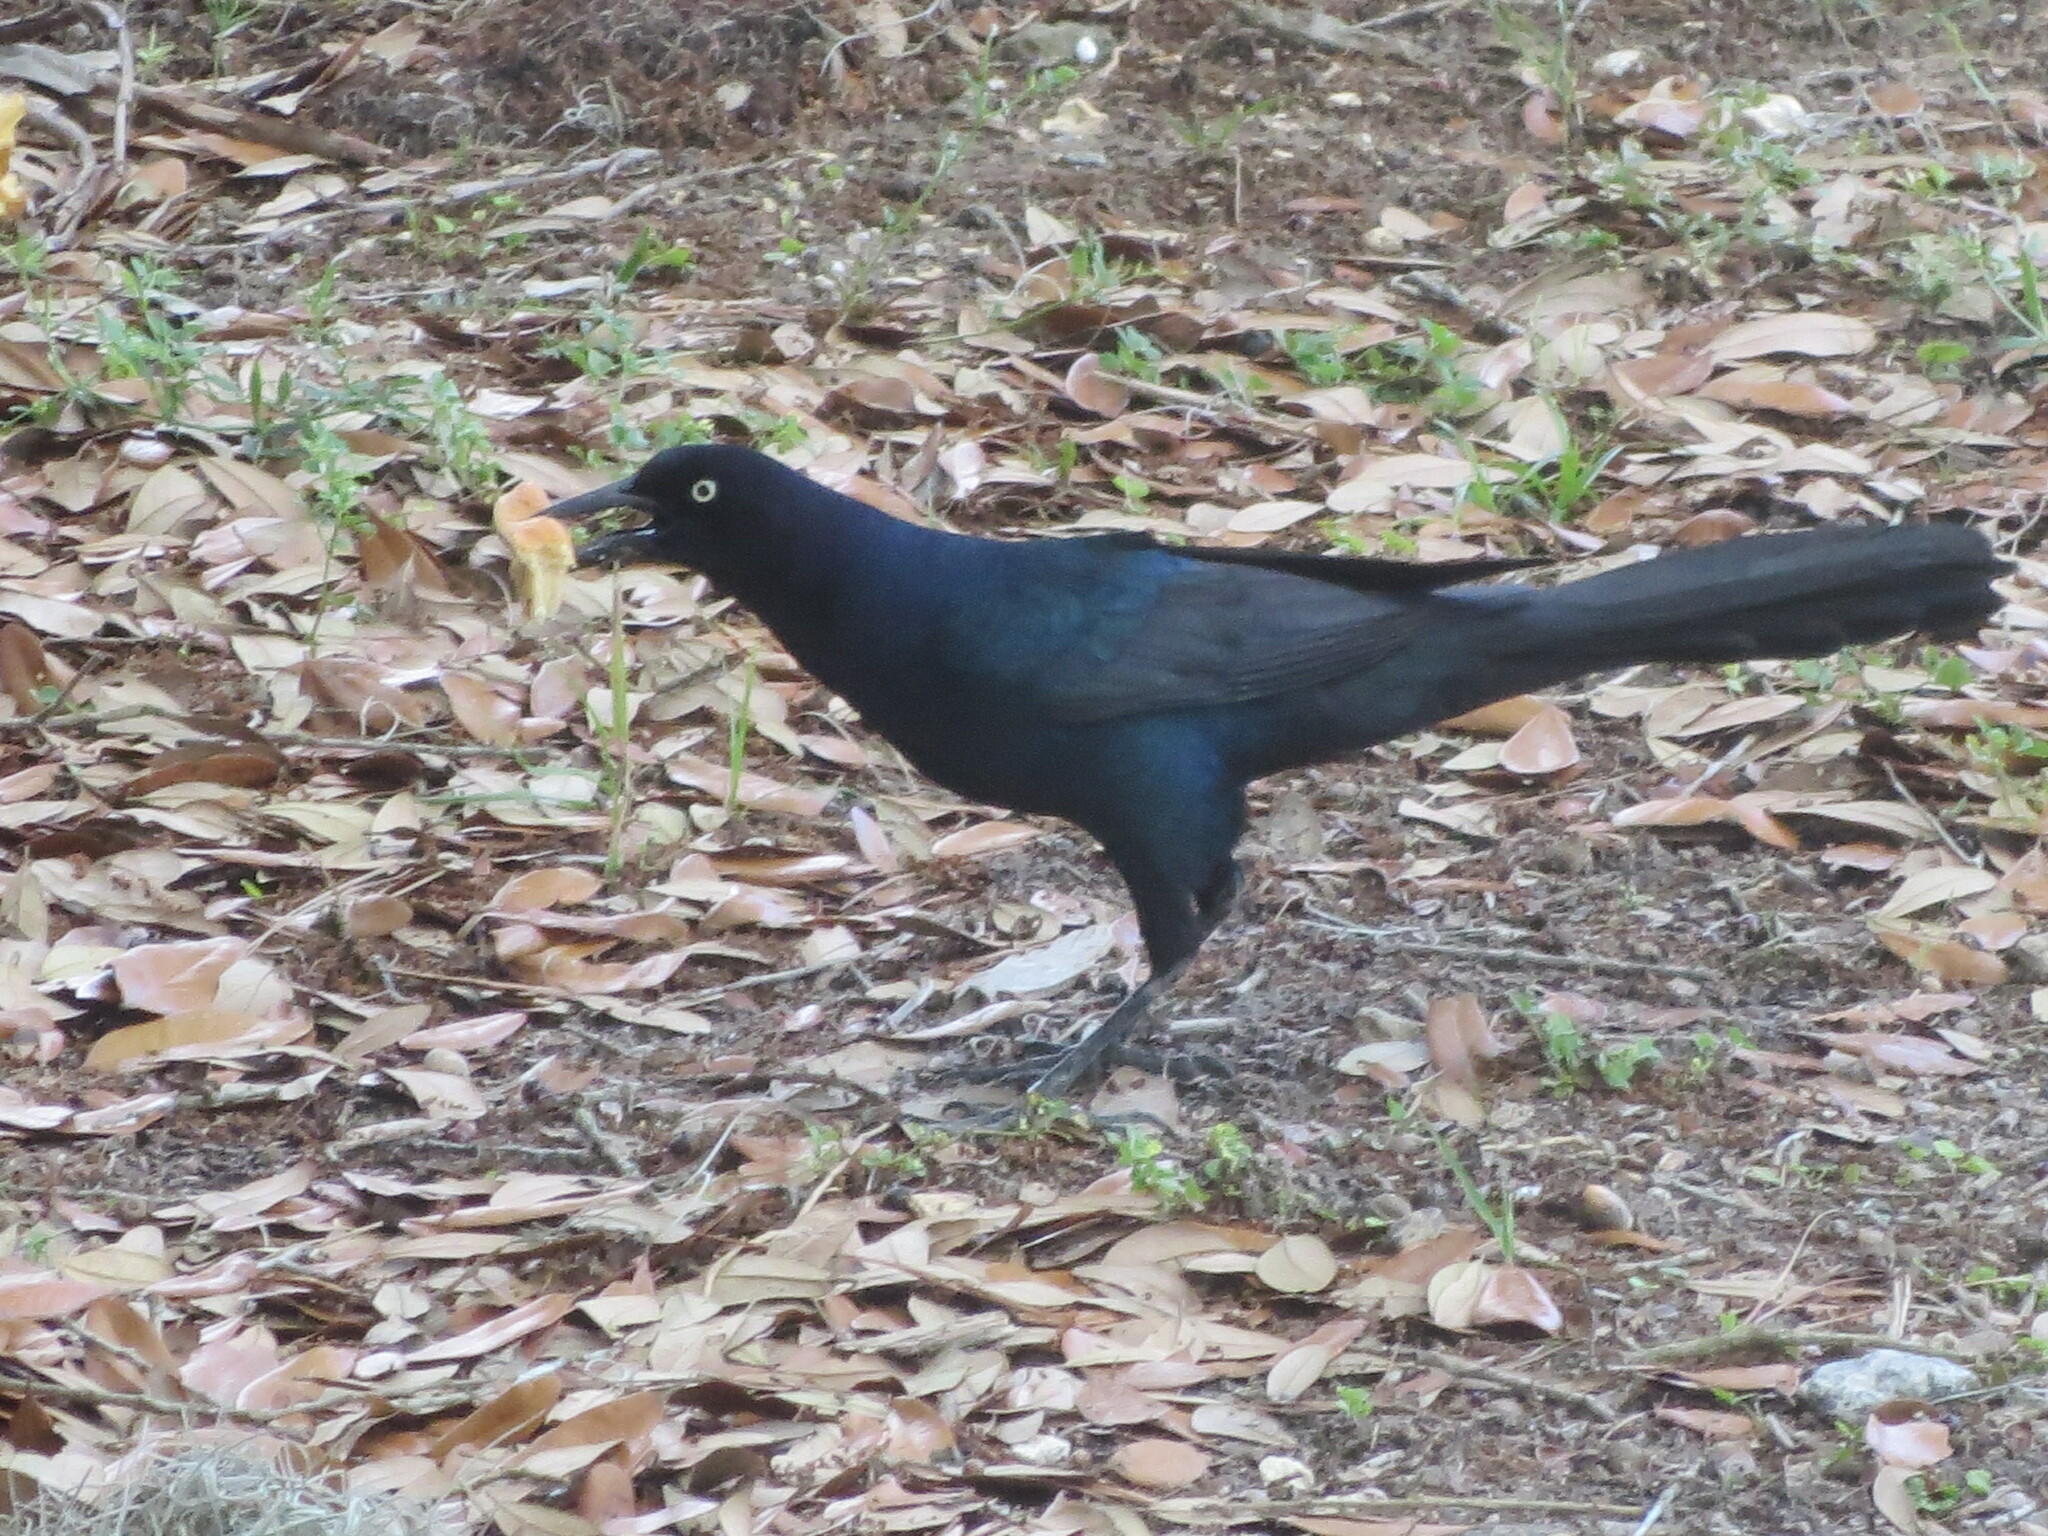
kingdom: Animalia
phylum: Chordata
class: Aves
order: Passeriformes
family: Icteridae
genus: Quiscalus
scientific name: Quiscalus major
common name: Boat-tailed grackle
